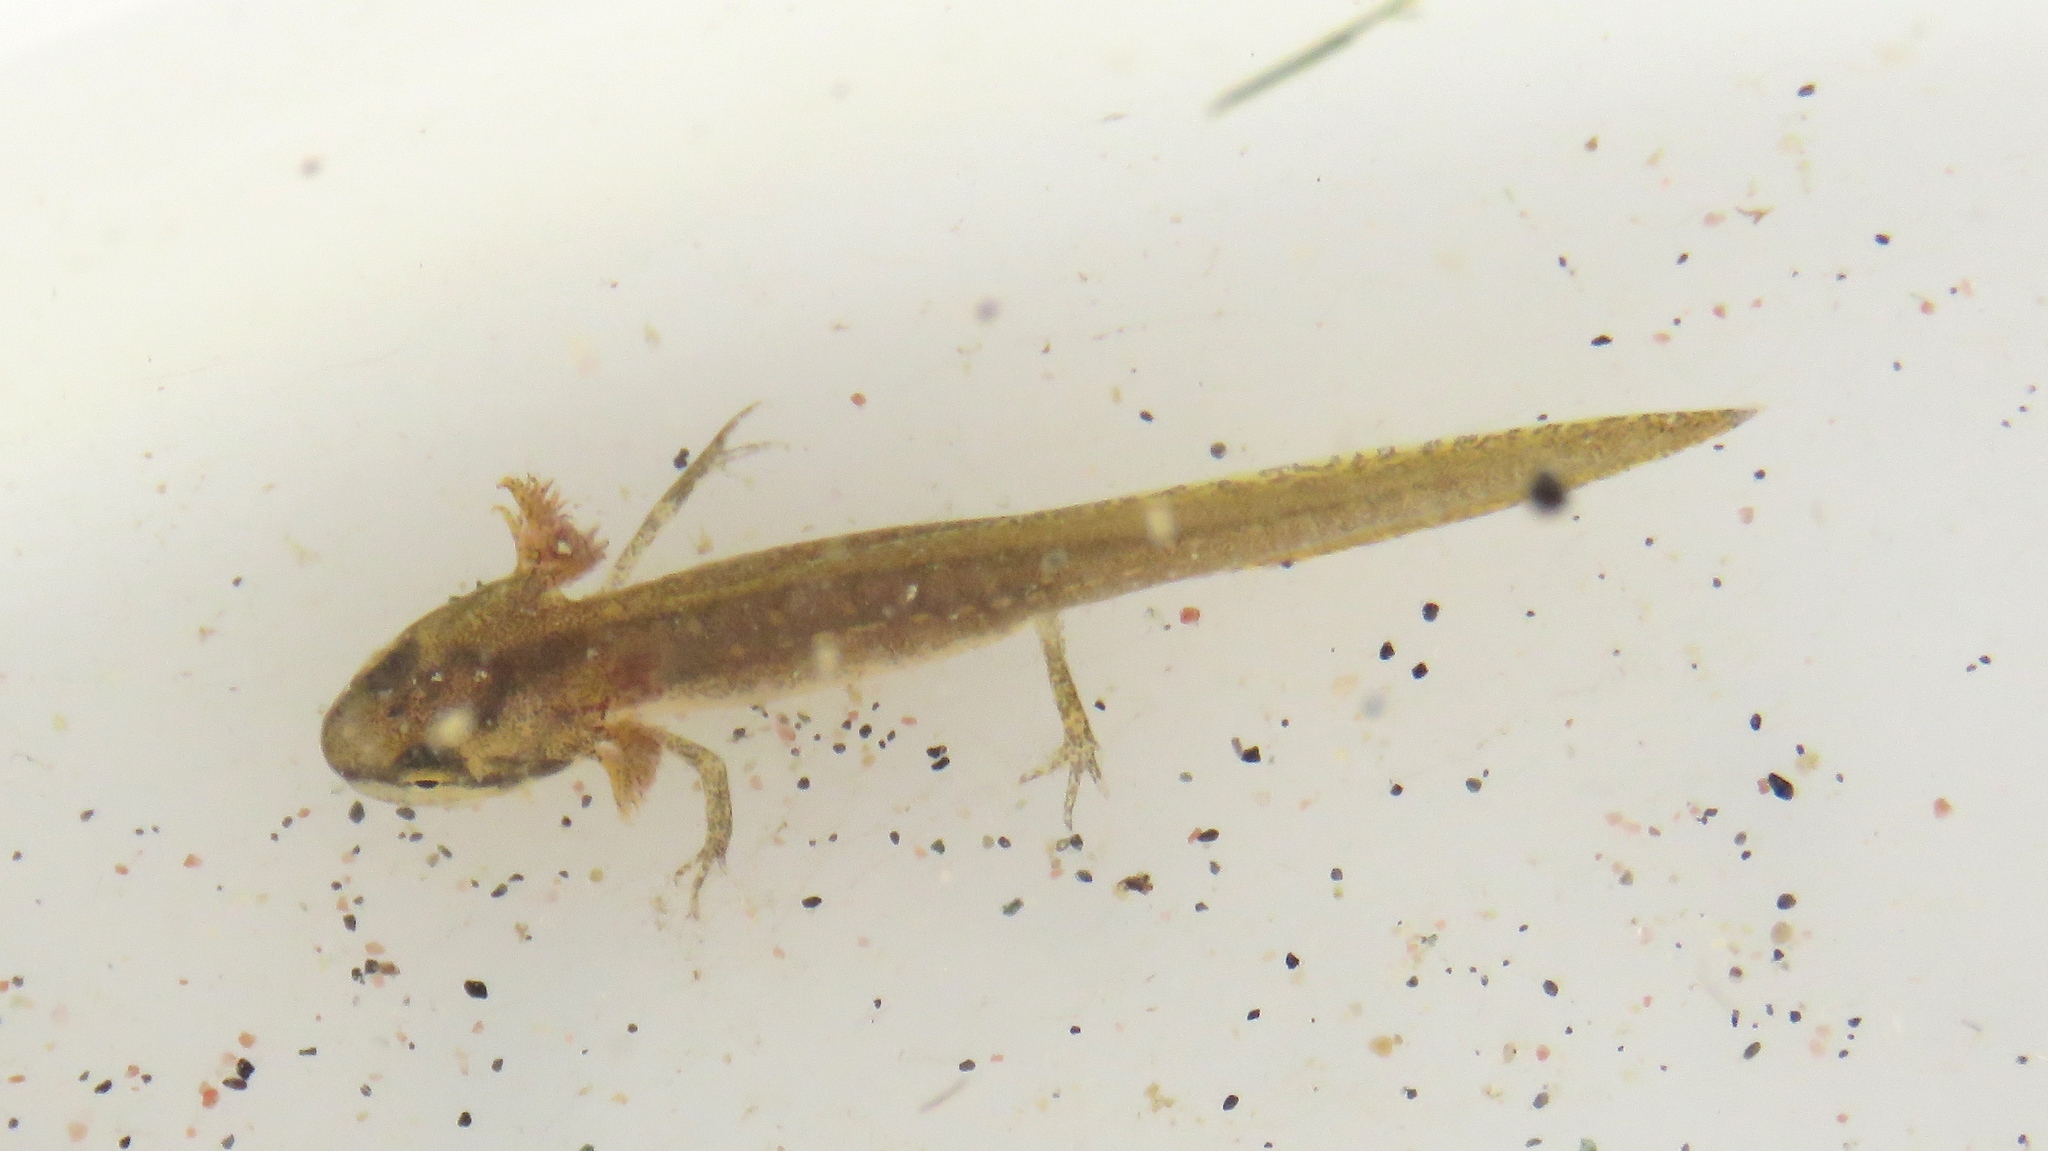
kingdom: Animalia
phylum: Chordata
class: Amphibia
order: Caudata
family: Salamandridae
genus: Notophthalmus
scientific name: Notophthalmus viridescens
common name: Eastern newt
